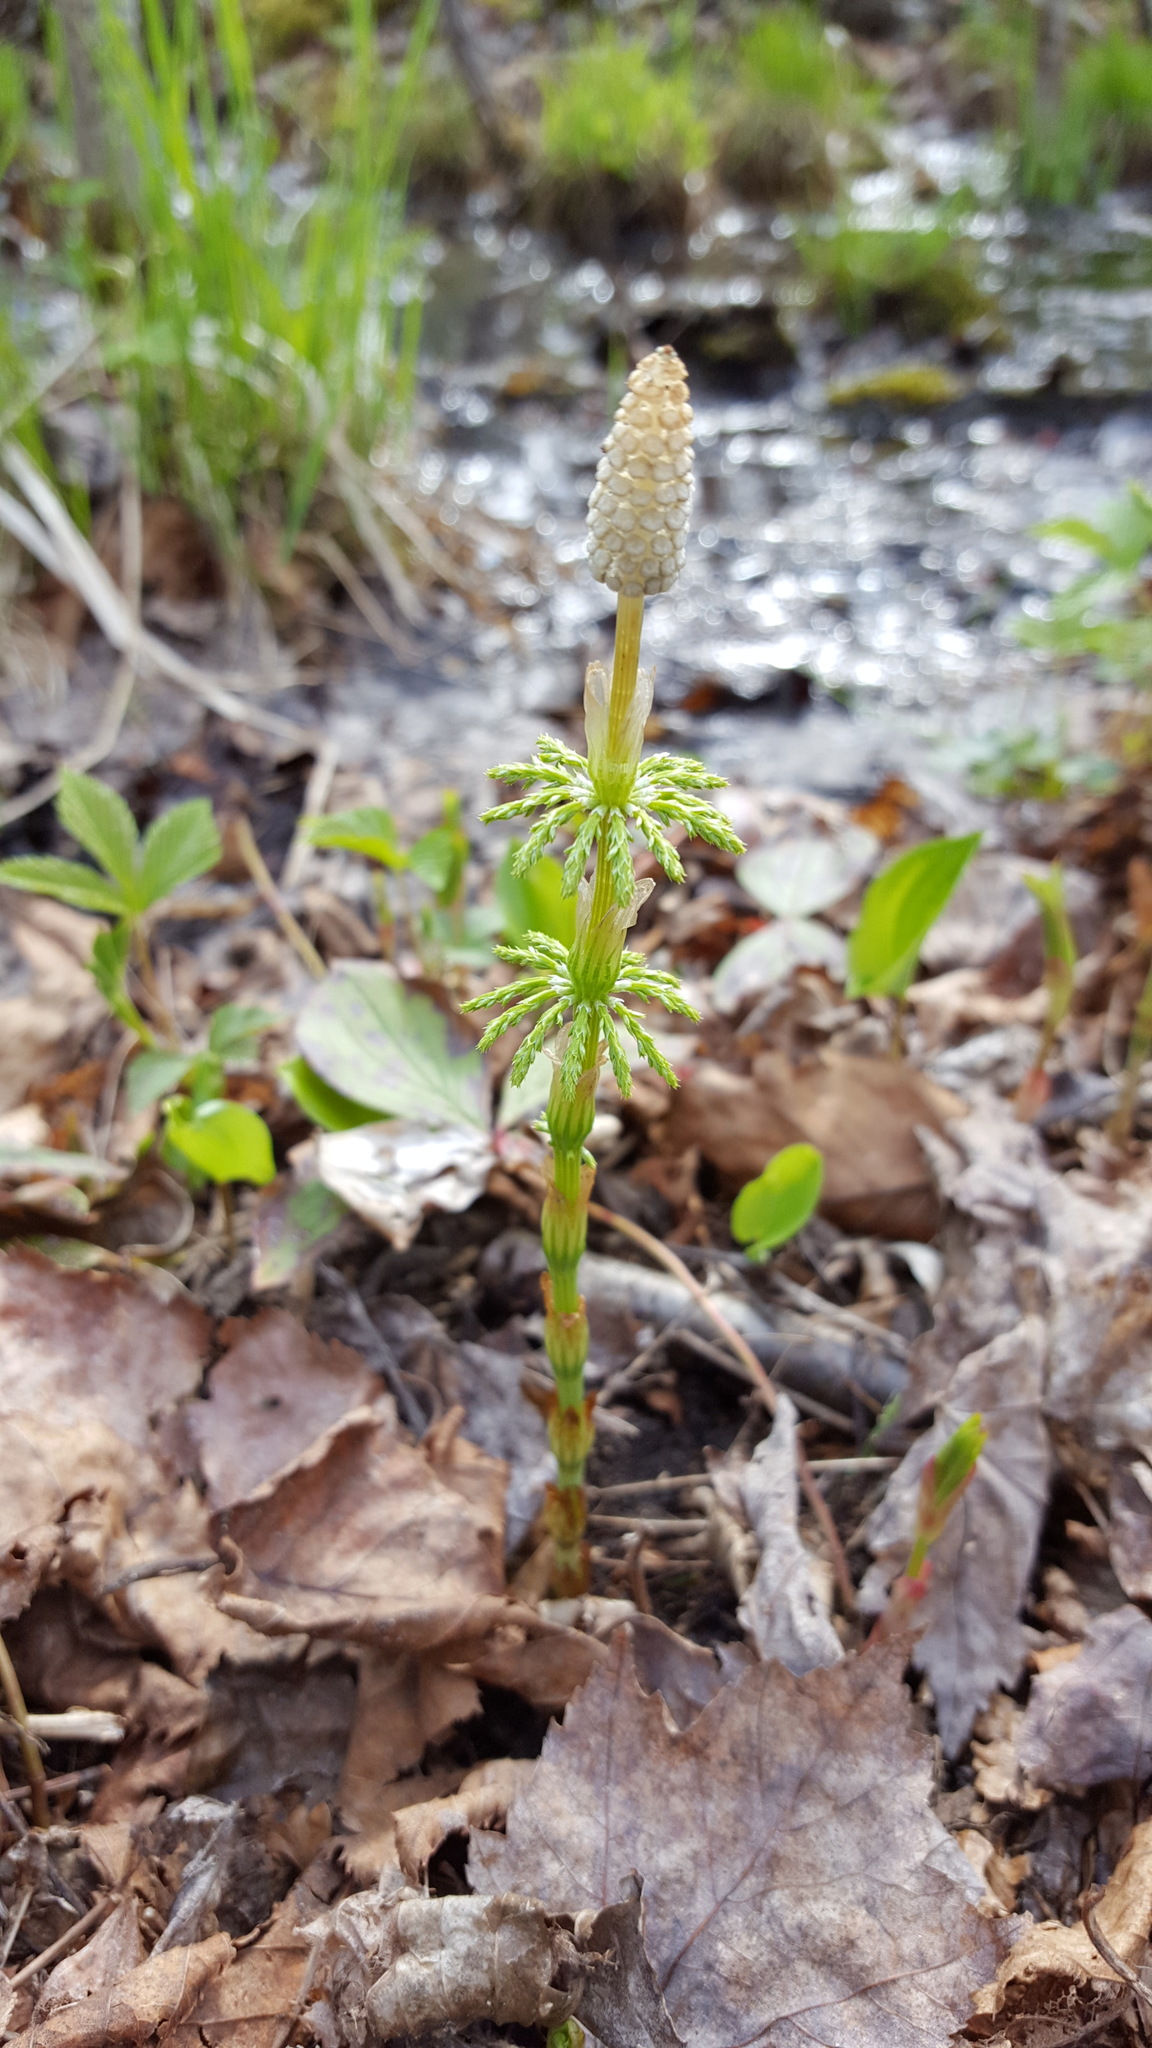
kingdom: Plantae
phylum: Tracheophyta
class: Polypodiopsida
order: Equisetales
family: Equisetaceae
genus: Equisetum
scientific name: Equisetum sylvaticum
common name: Wood horsetail
